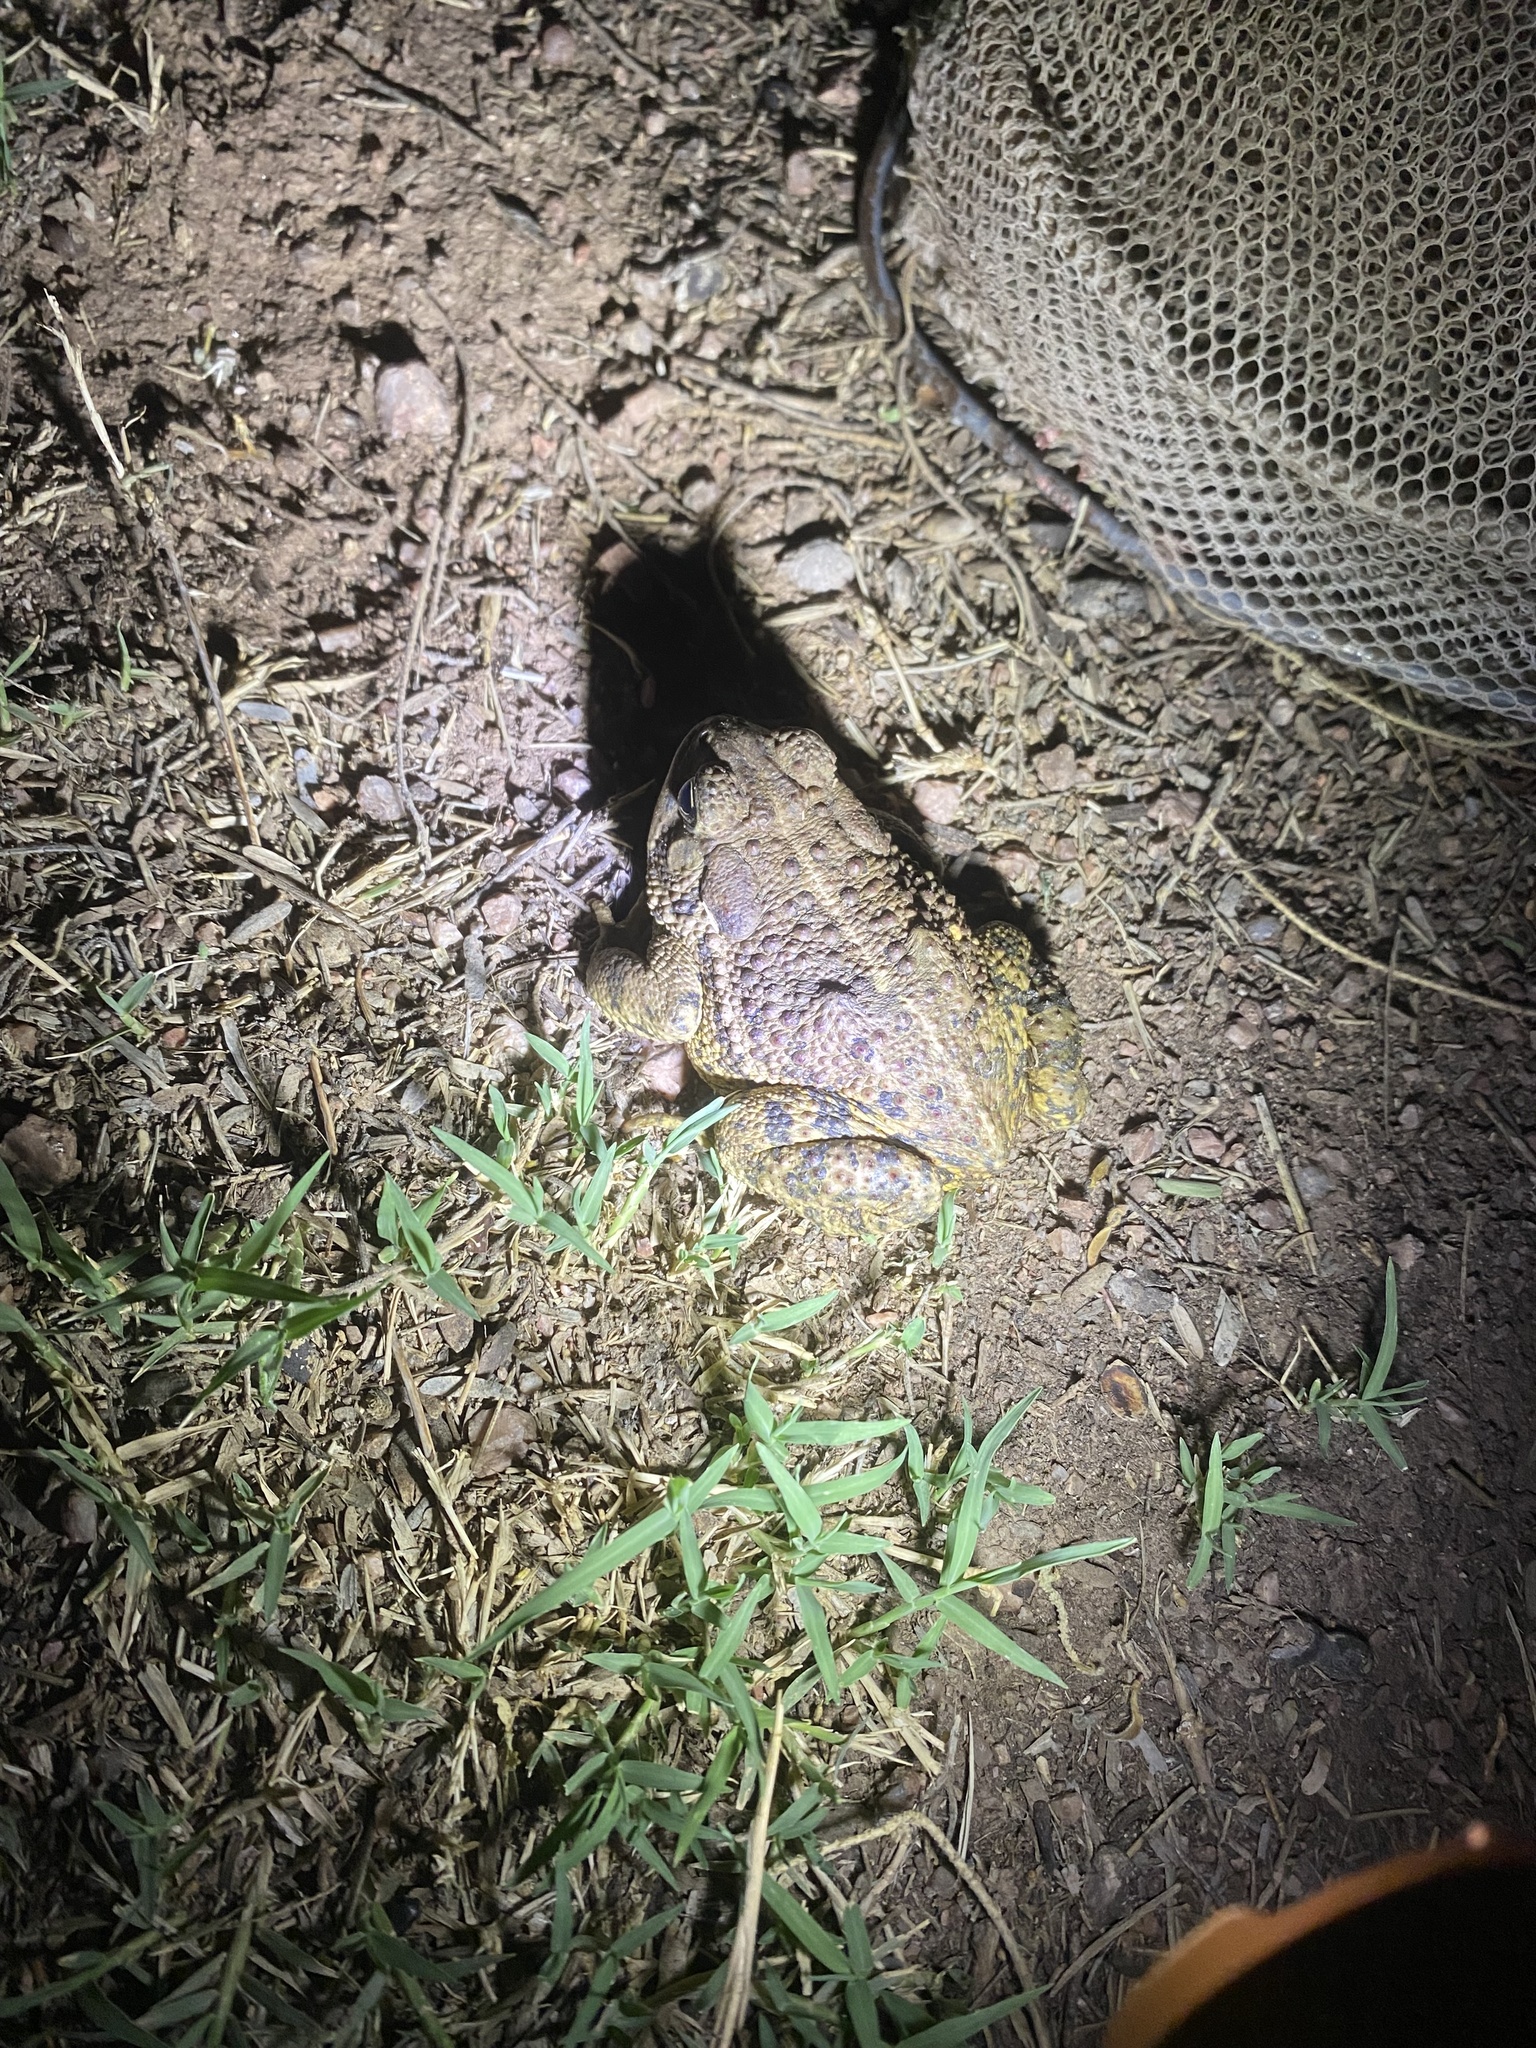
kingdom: Animalia
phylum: Chordata
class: Amphibia
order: Anura
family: Bufonidae
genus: Anaxyrus
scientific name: Anaxyrus woodhousii
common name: Woodhouse's toad
